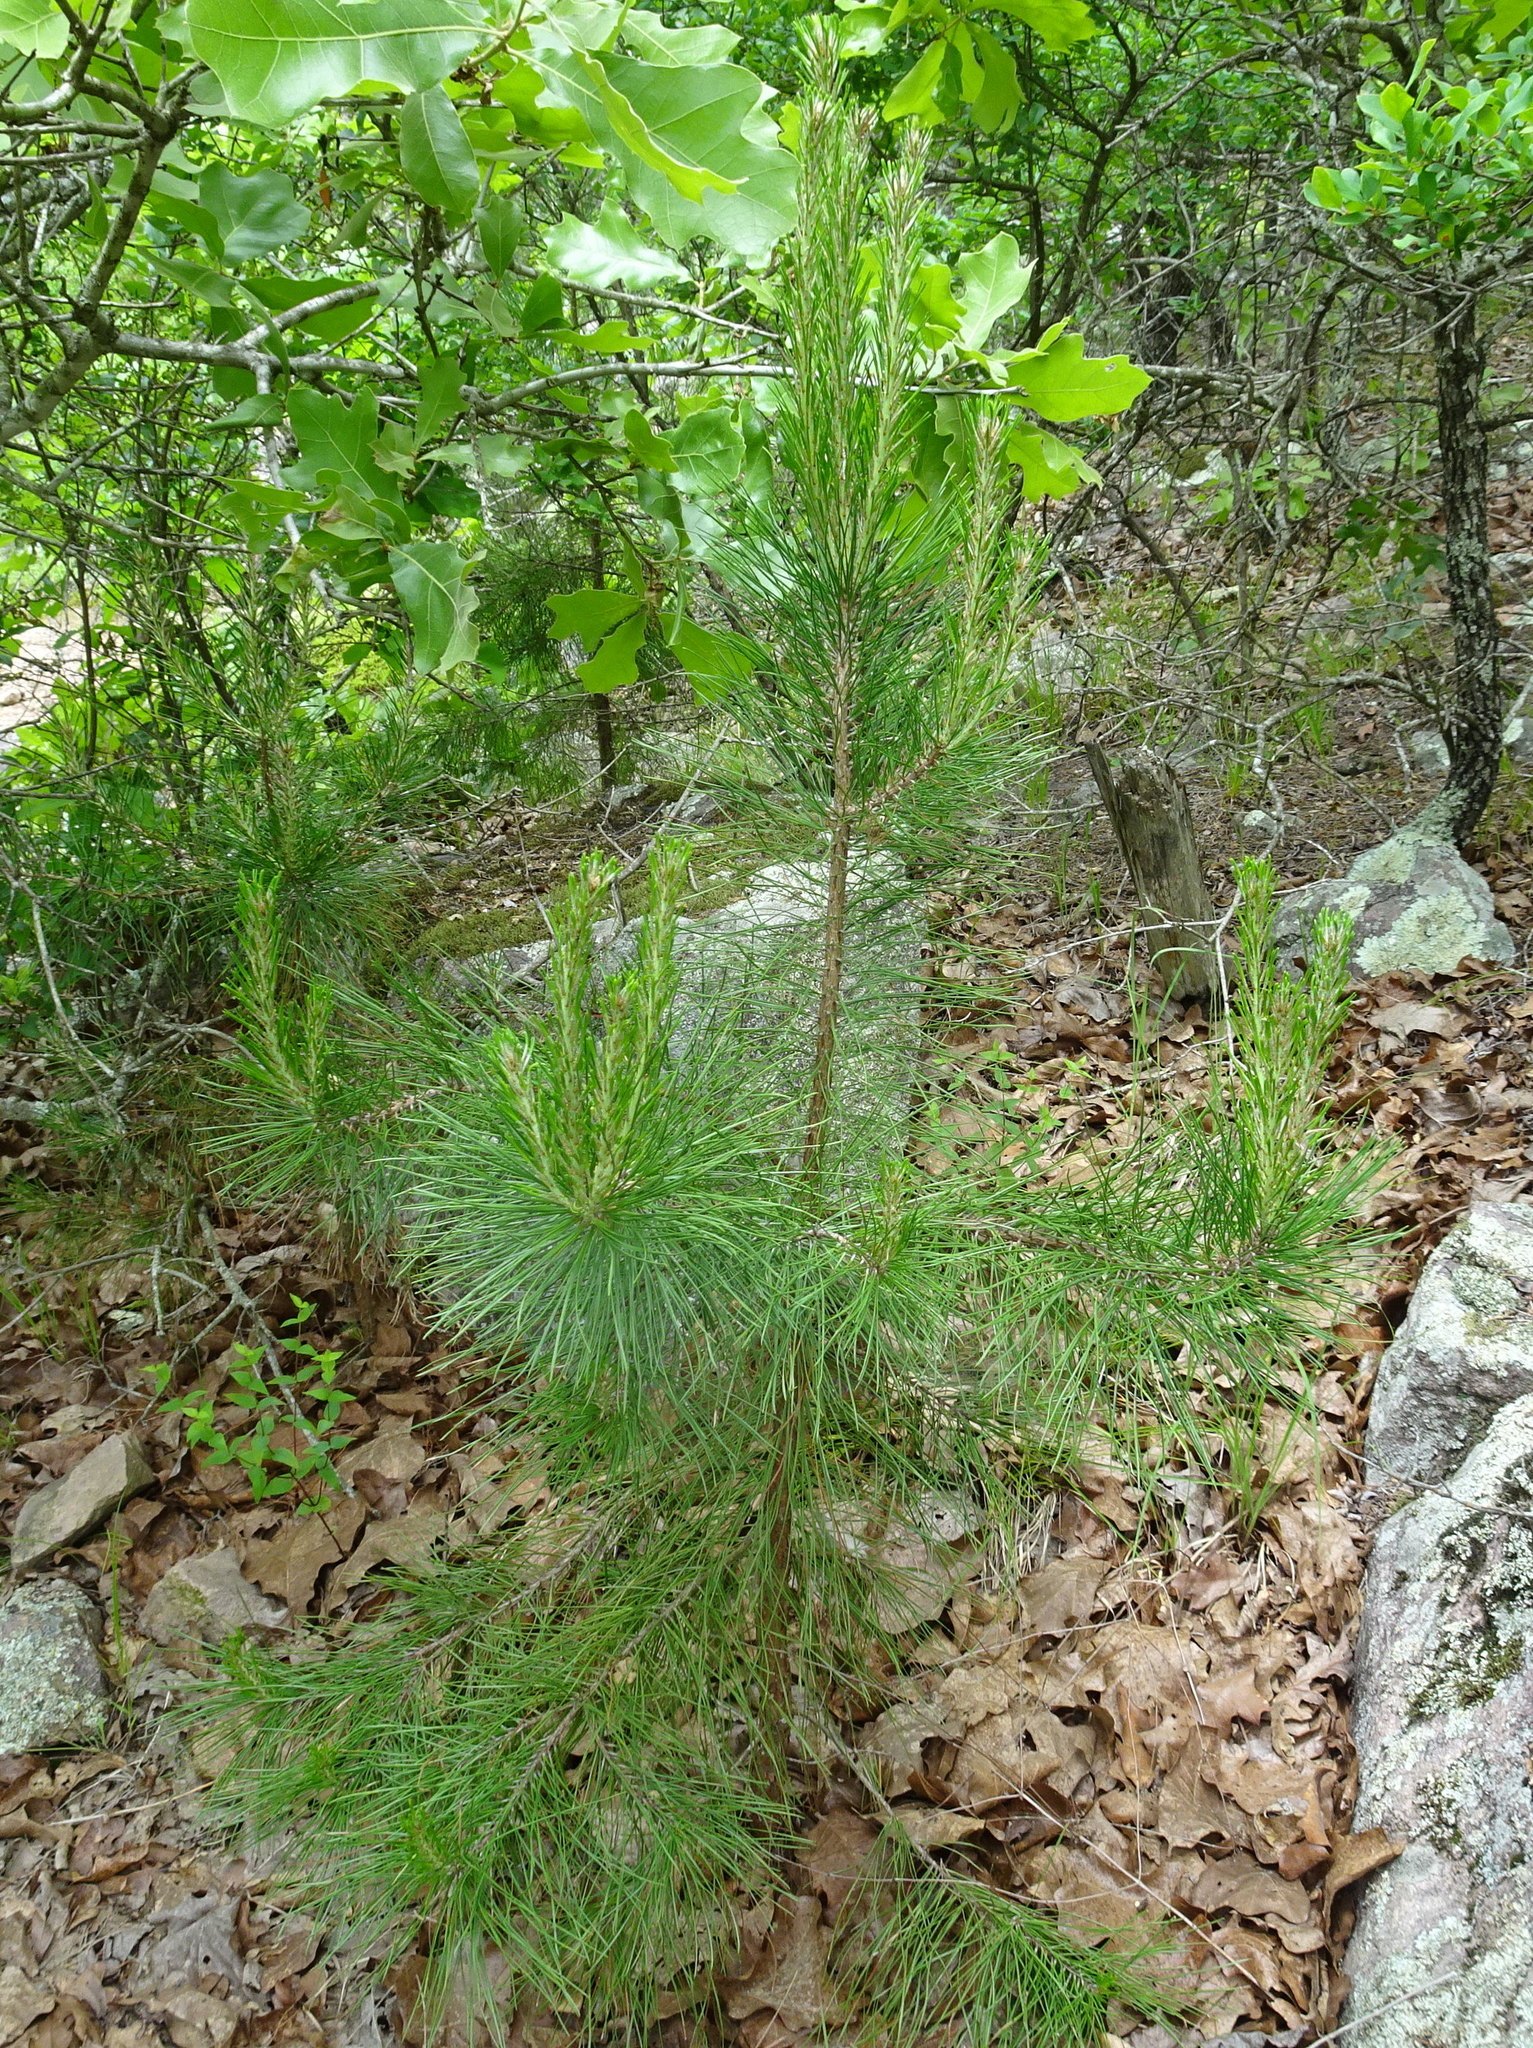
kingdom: Plantae
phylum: Tracheophyta
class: Pinopsida
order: Pinales
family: Pinaceae
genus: Pinus
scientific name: Pinus echinata
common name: Shortleaf pine
